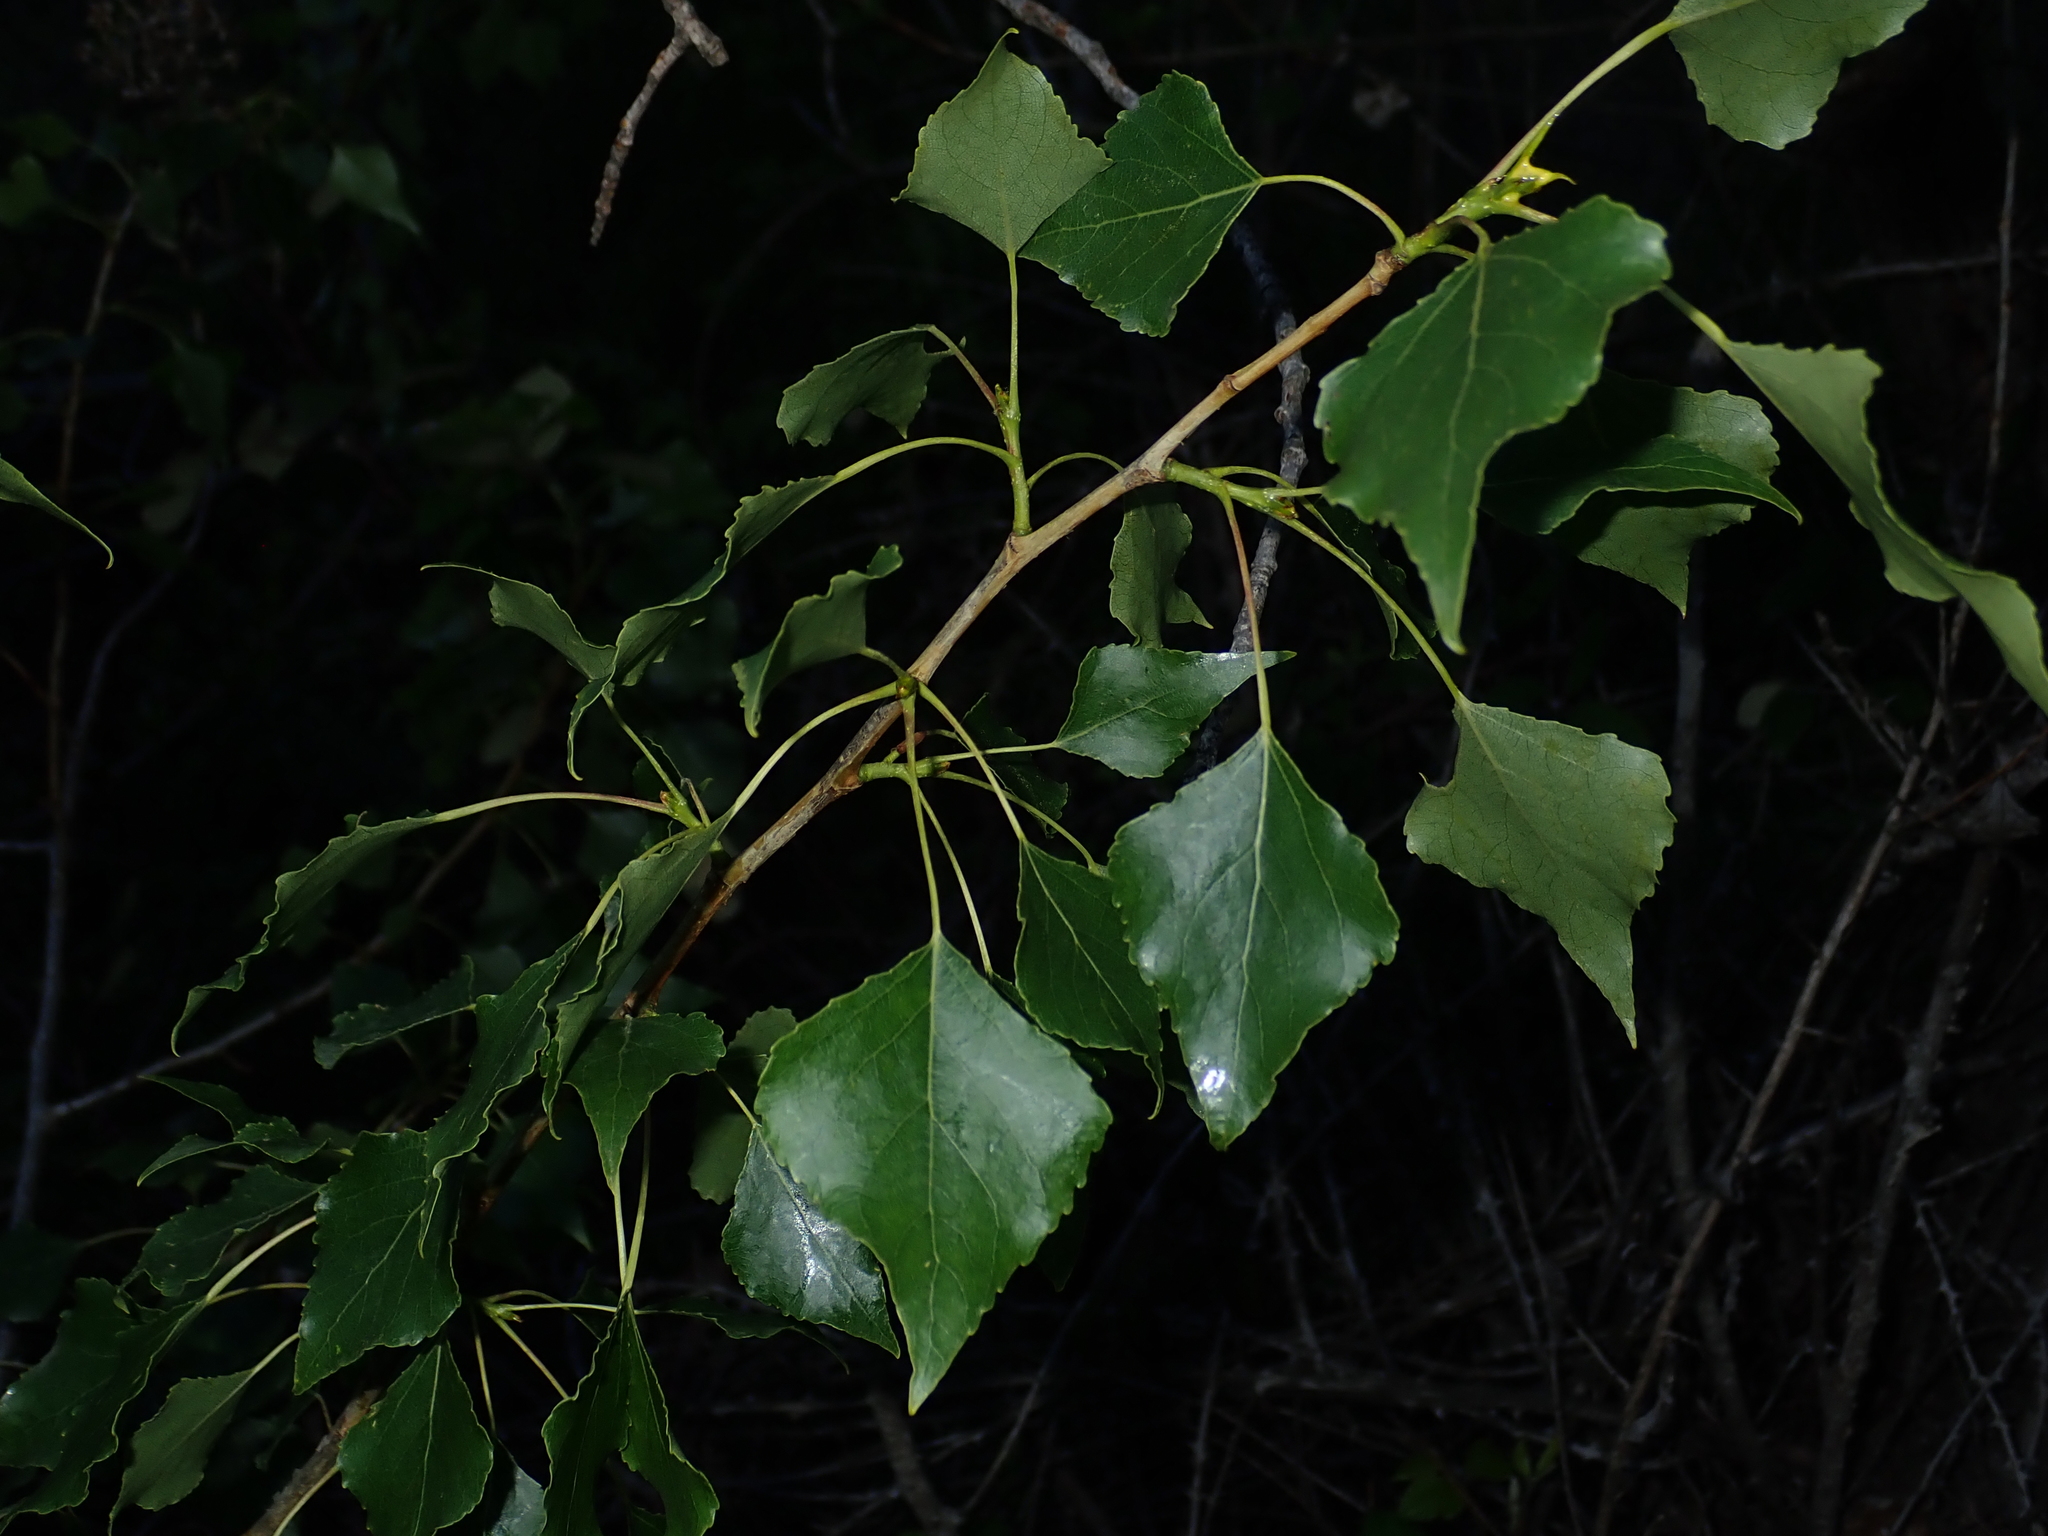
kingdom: Plantae
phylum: Tracheophyta
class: Magnoliopsida
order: Malpighiales
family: Salicaceae
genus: Populus
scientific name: Populus nigra
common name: Black poplar
